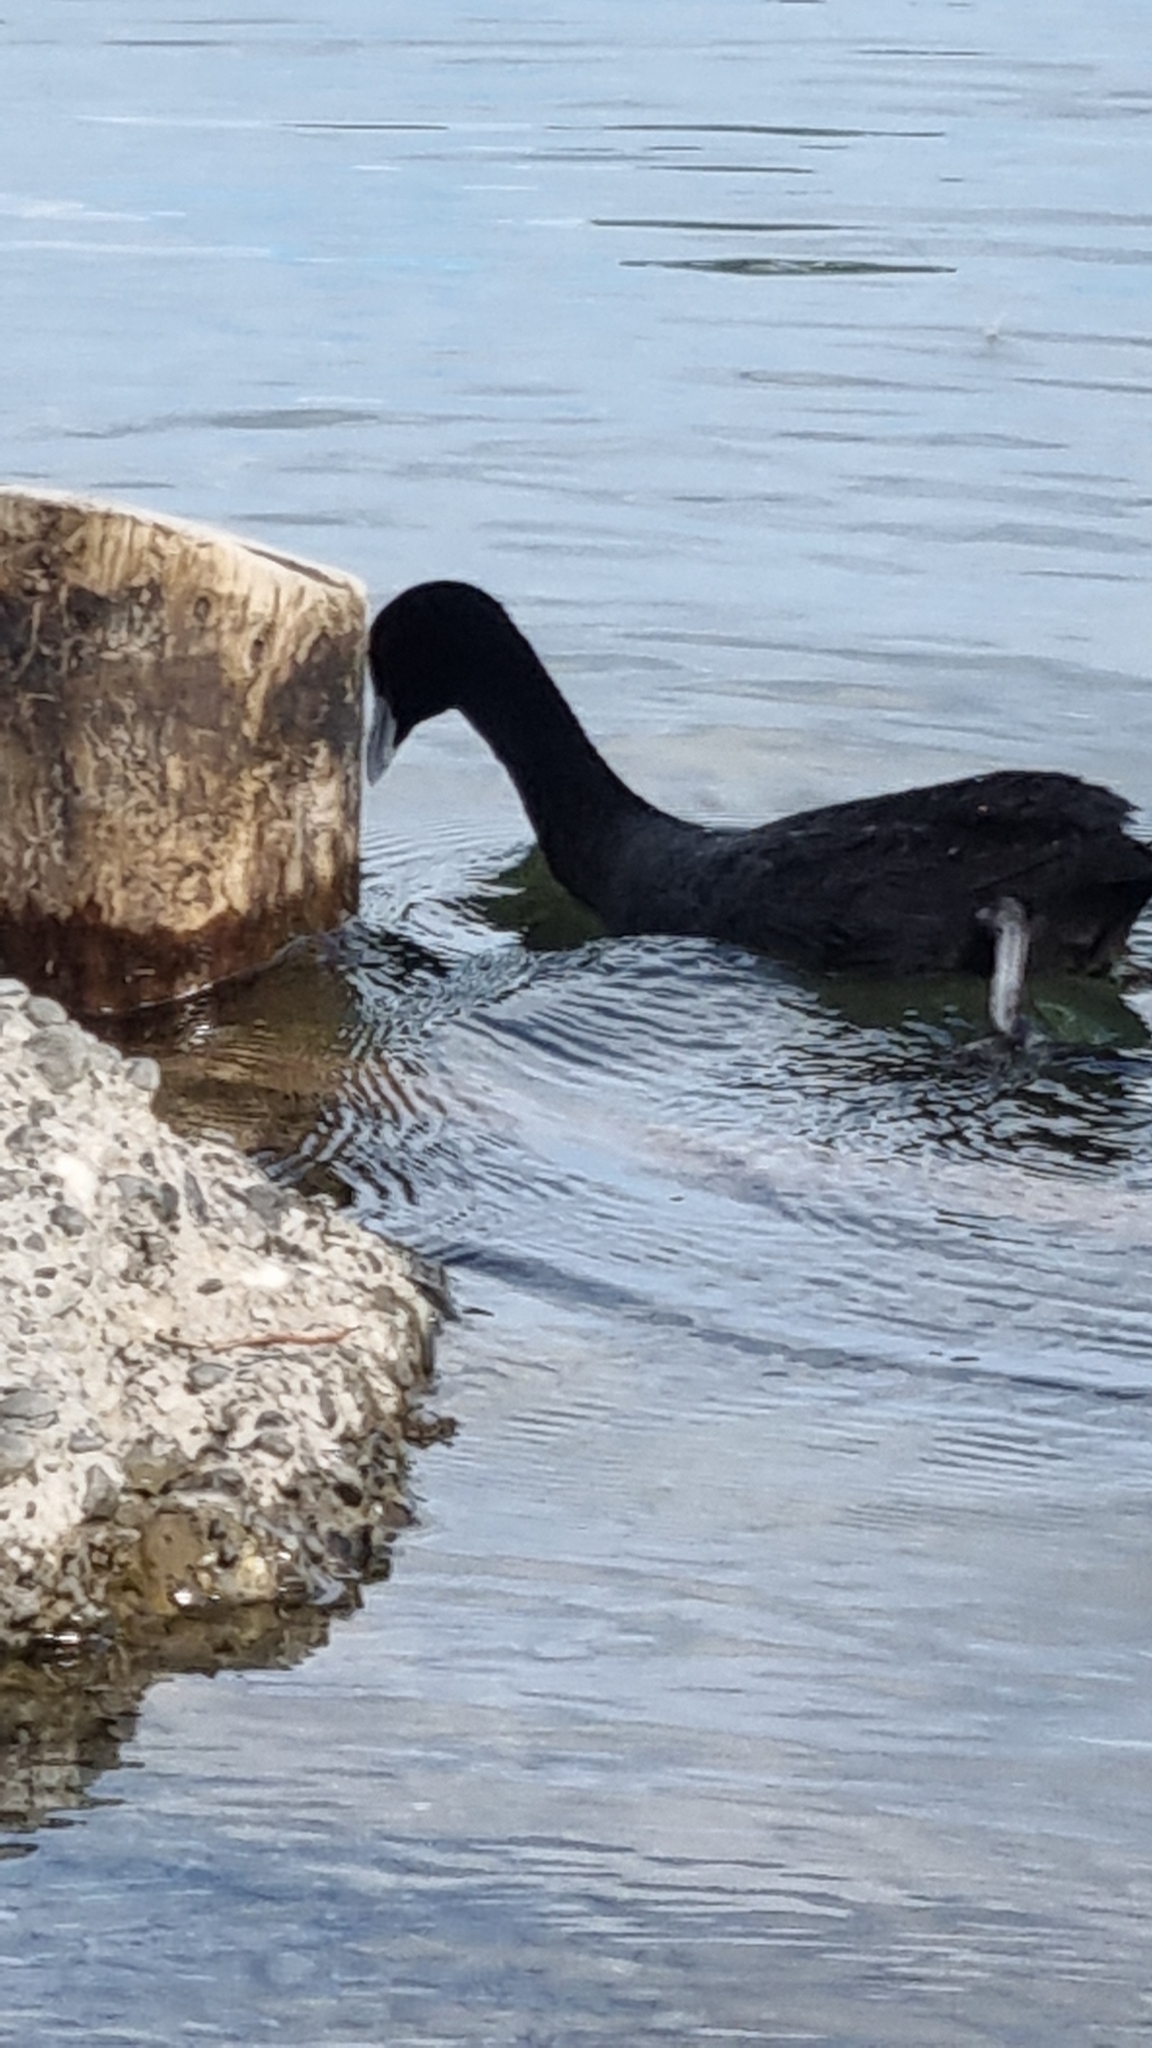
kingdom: Animalia
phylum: Chordata
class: Aves
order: Gruiformes
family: Rallidae
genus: Fulica
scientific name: Fulica atra
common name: Eurasian coot
